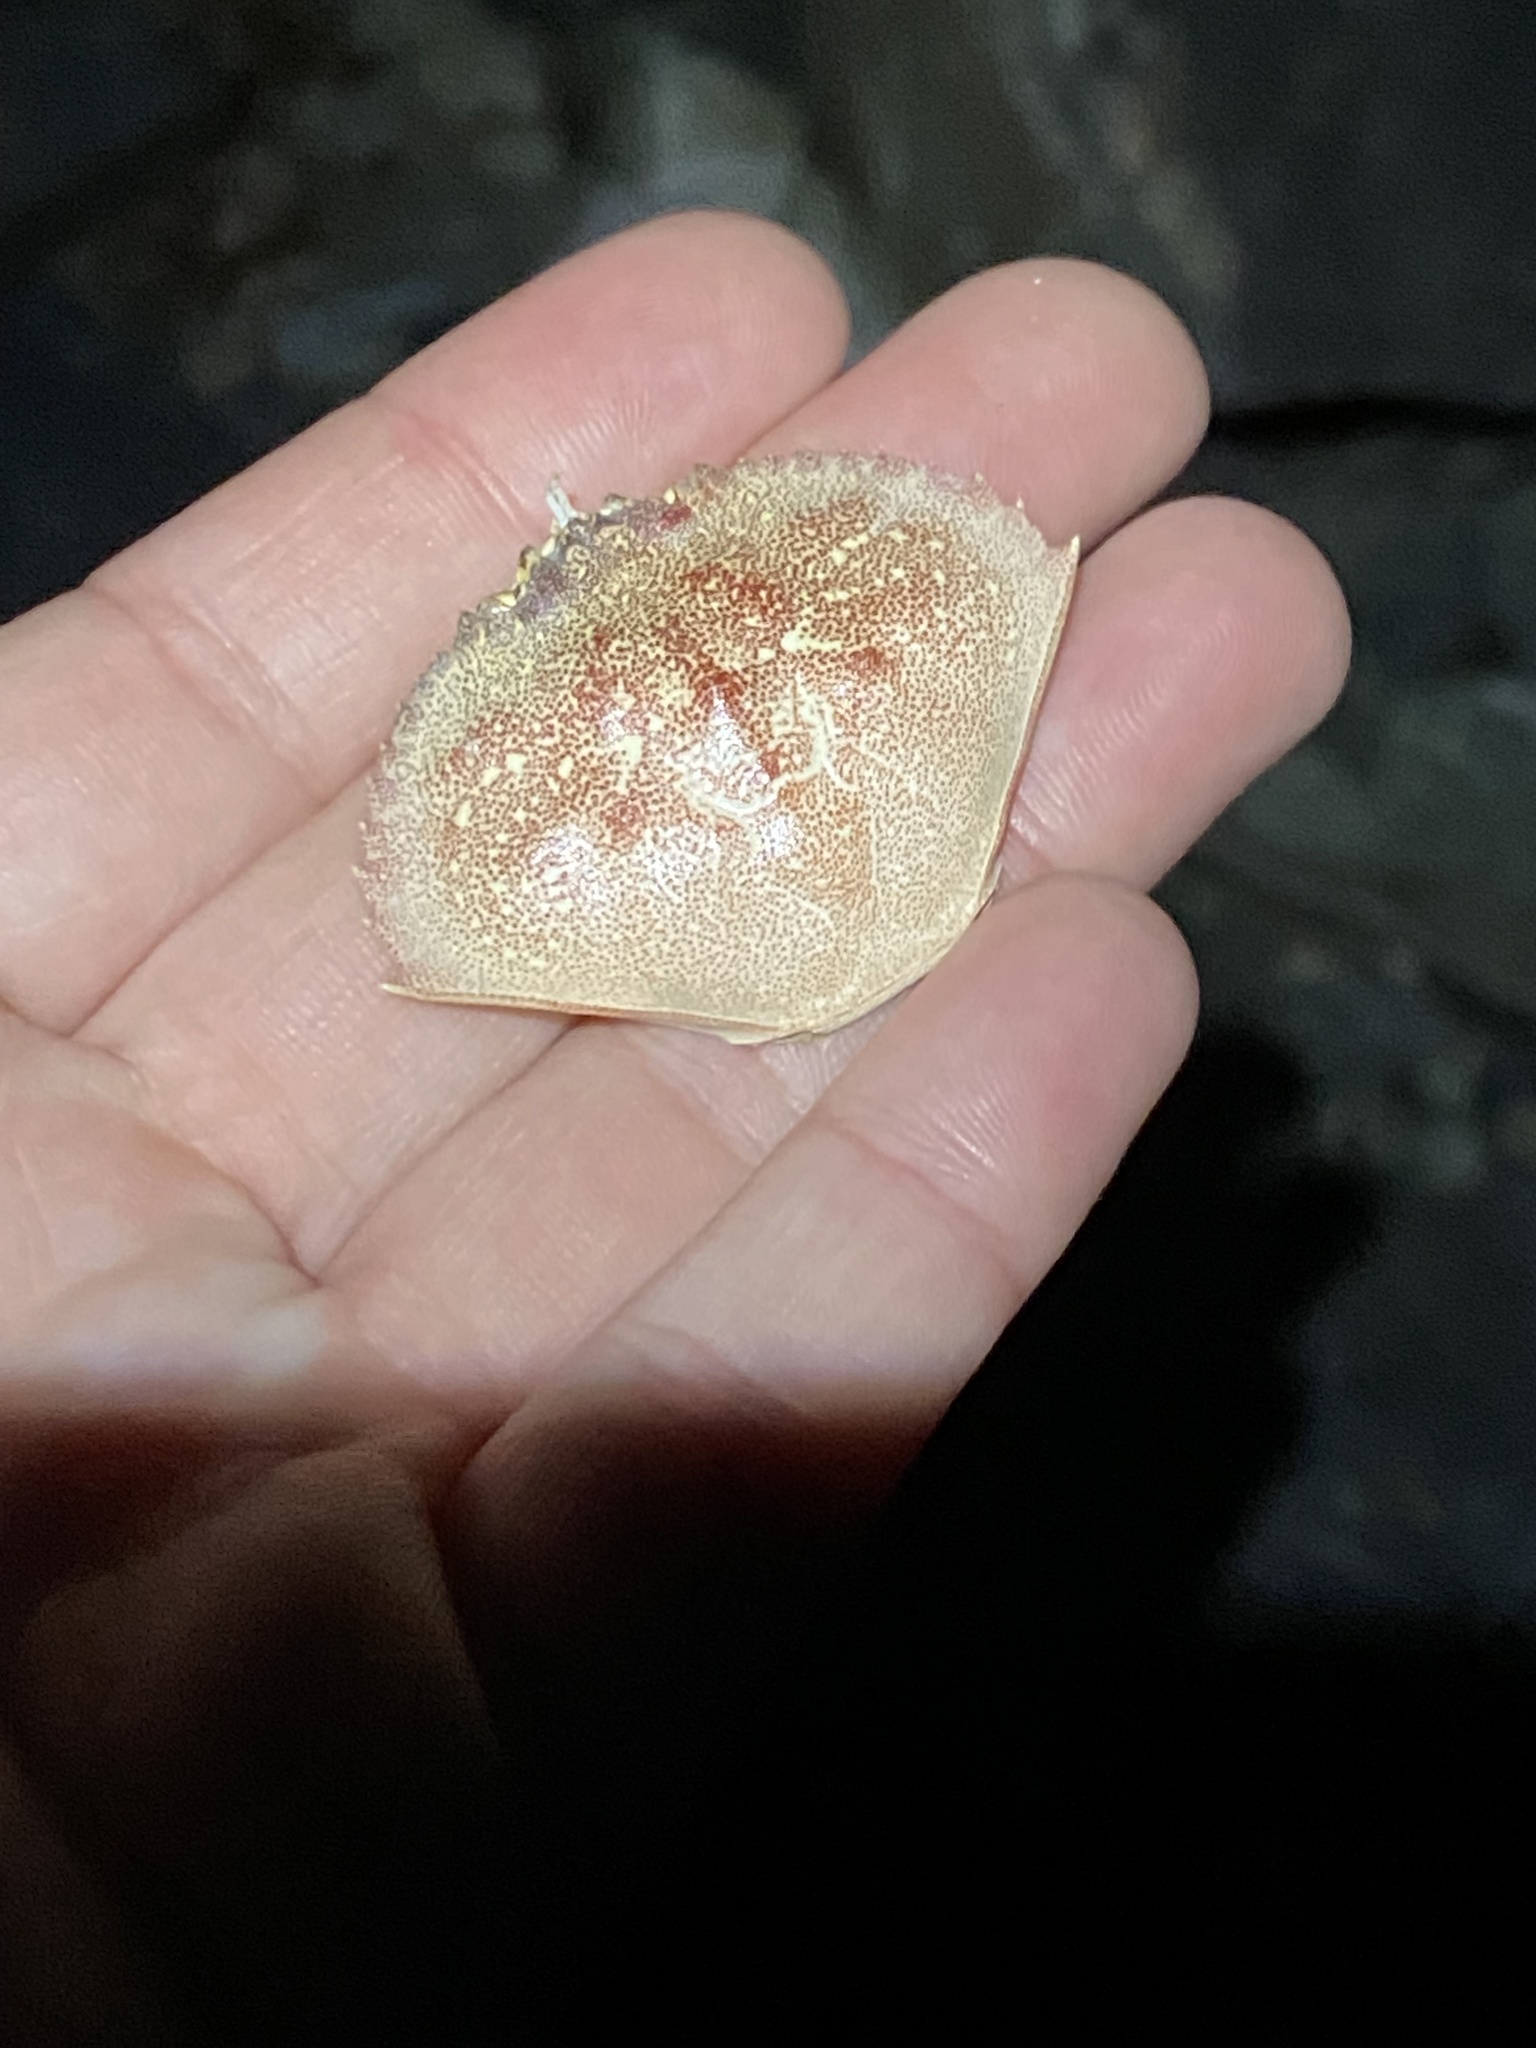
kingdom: Animalia
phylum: Arthropoda
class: Malacostraca
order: Decapoda
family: Cancridae
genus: Metacarcinus
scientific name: Metacarcinus magister
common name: Californian crab
